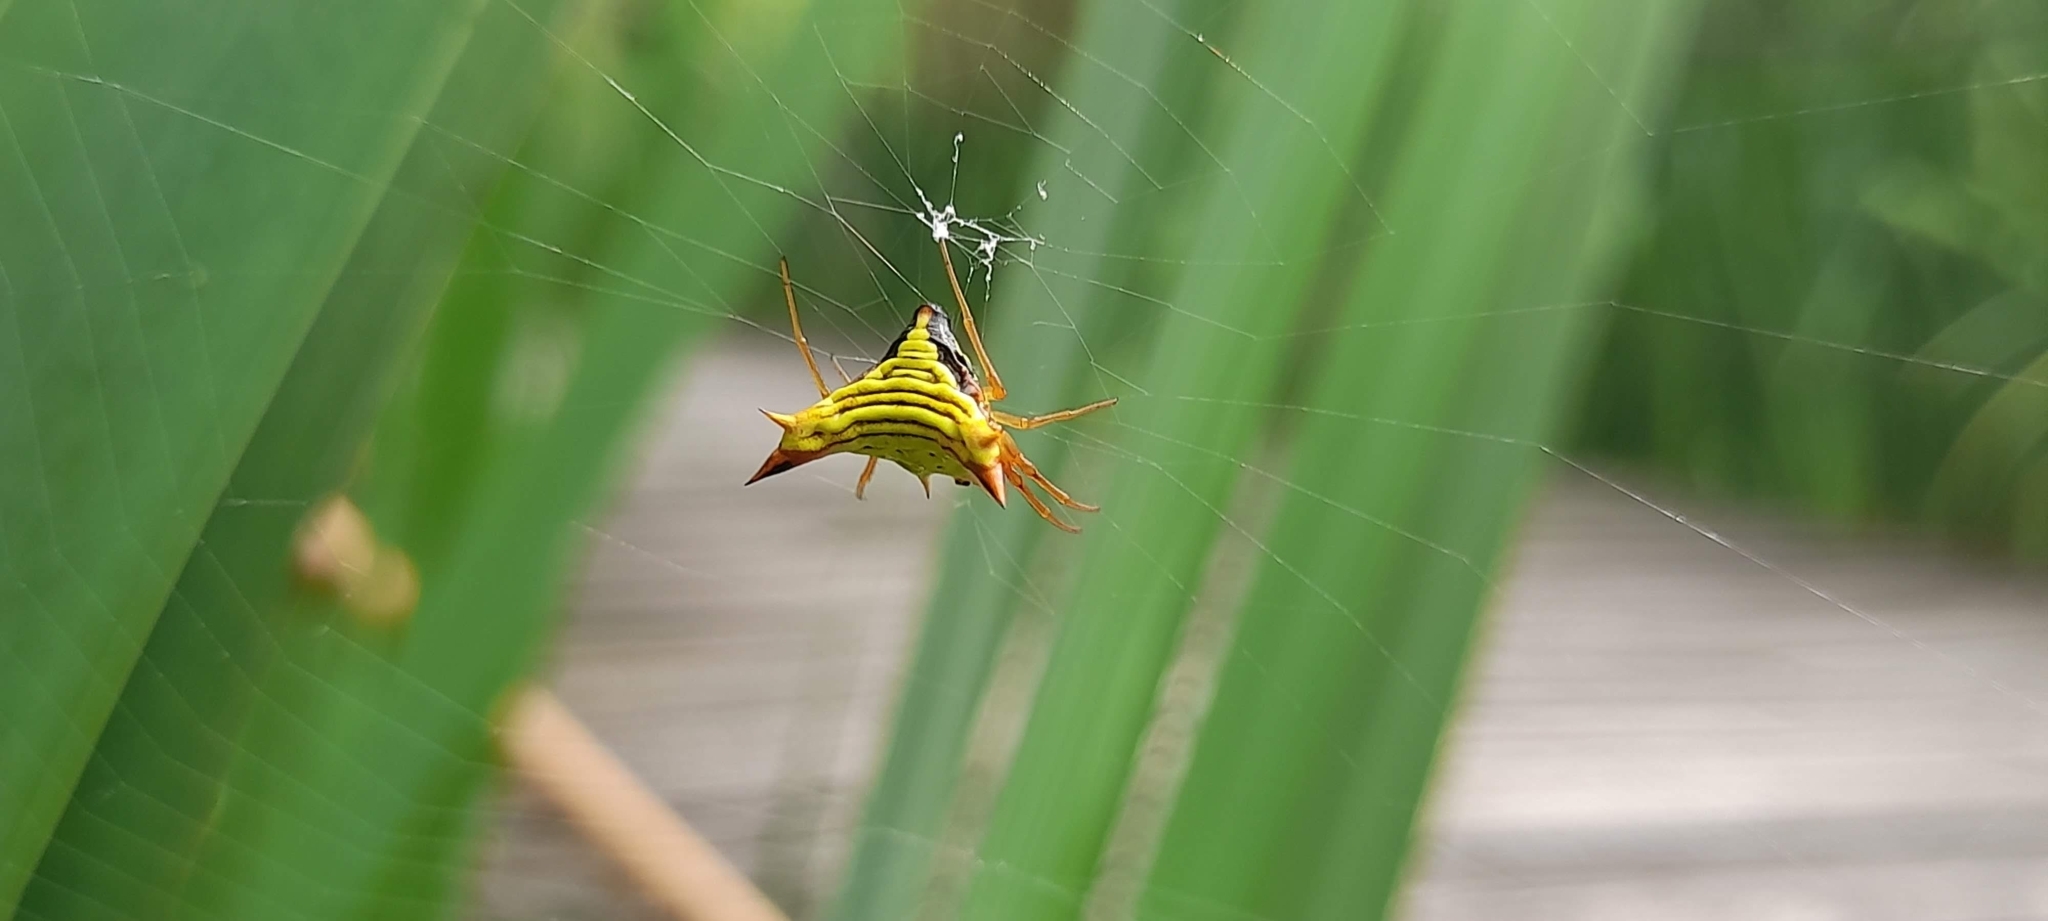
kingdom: Animalia
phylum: Arthropoda
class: Arachnida
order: Araneae
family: Araneidae
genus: Micrathena
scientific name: Micrathena furcata
